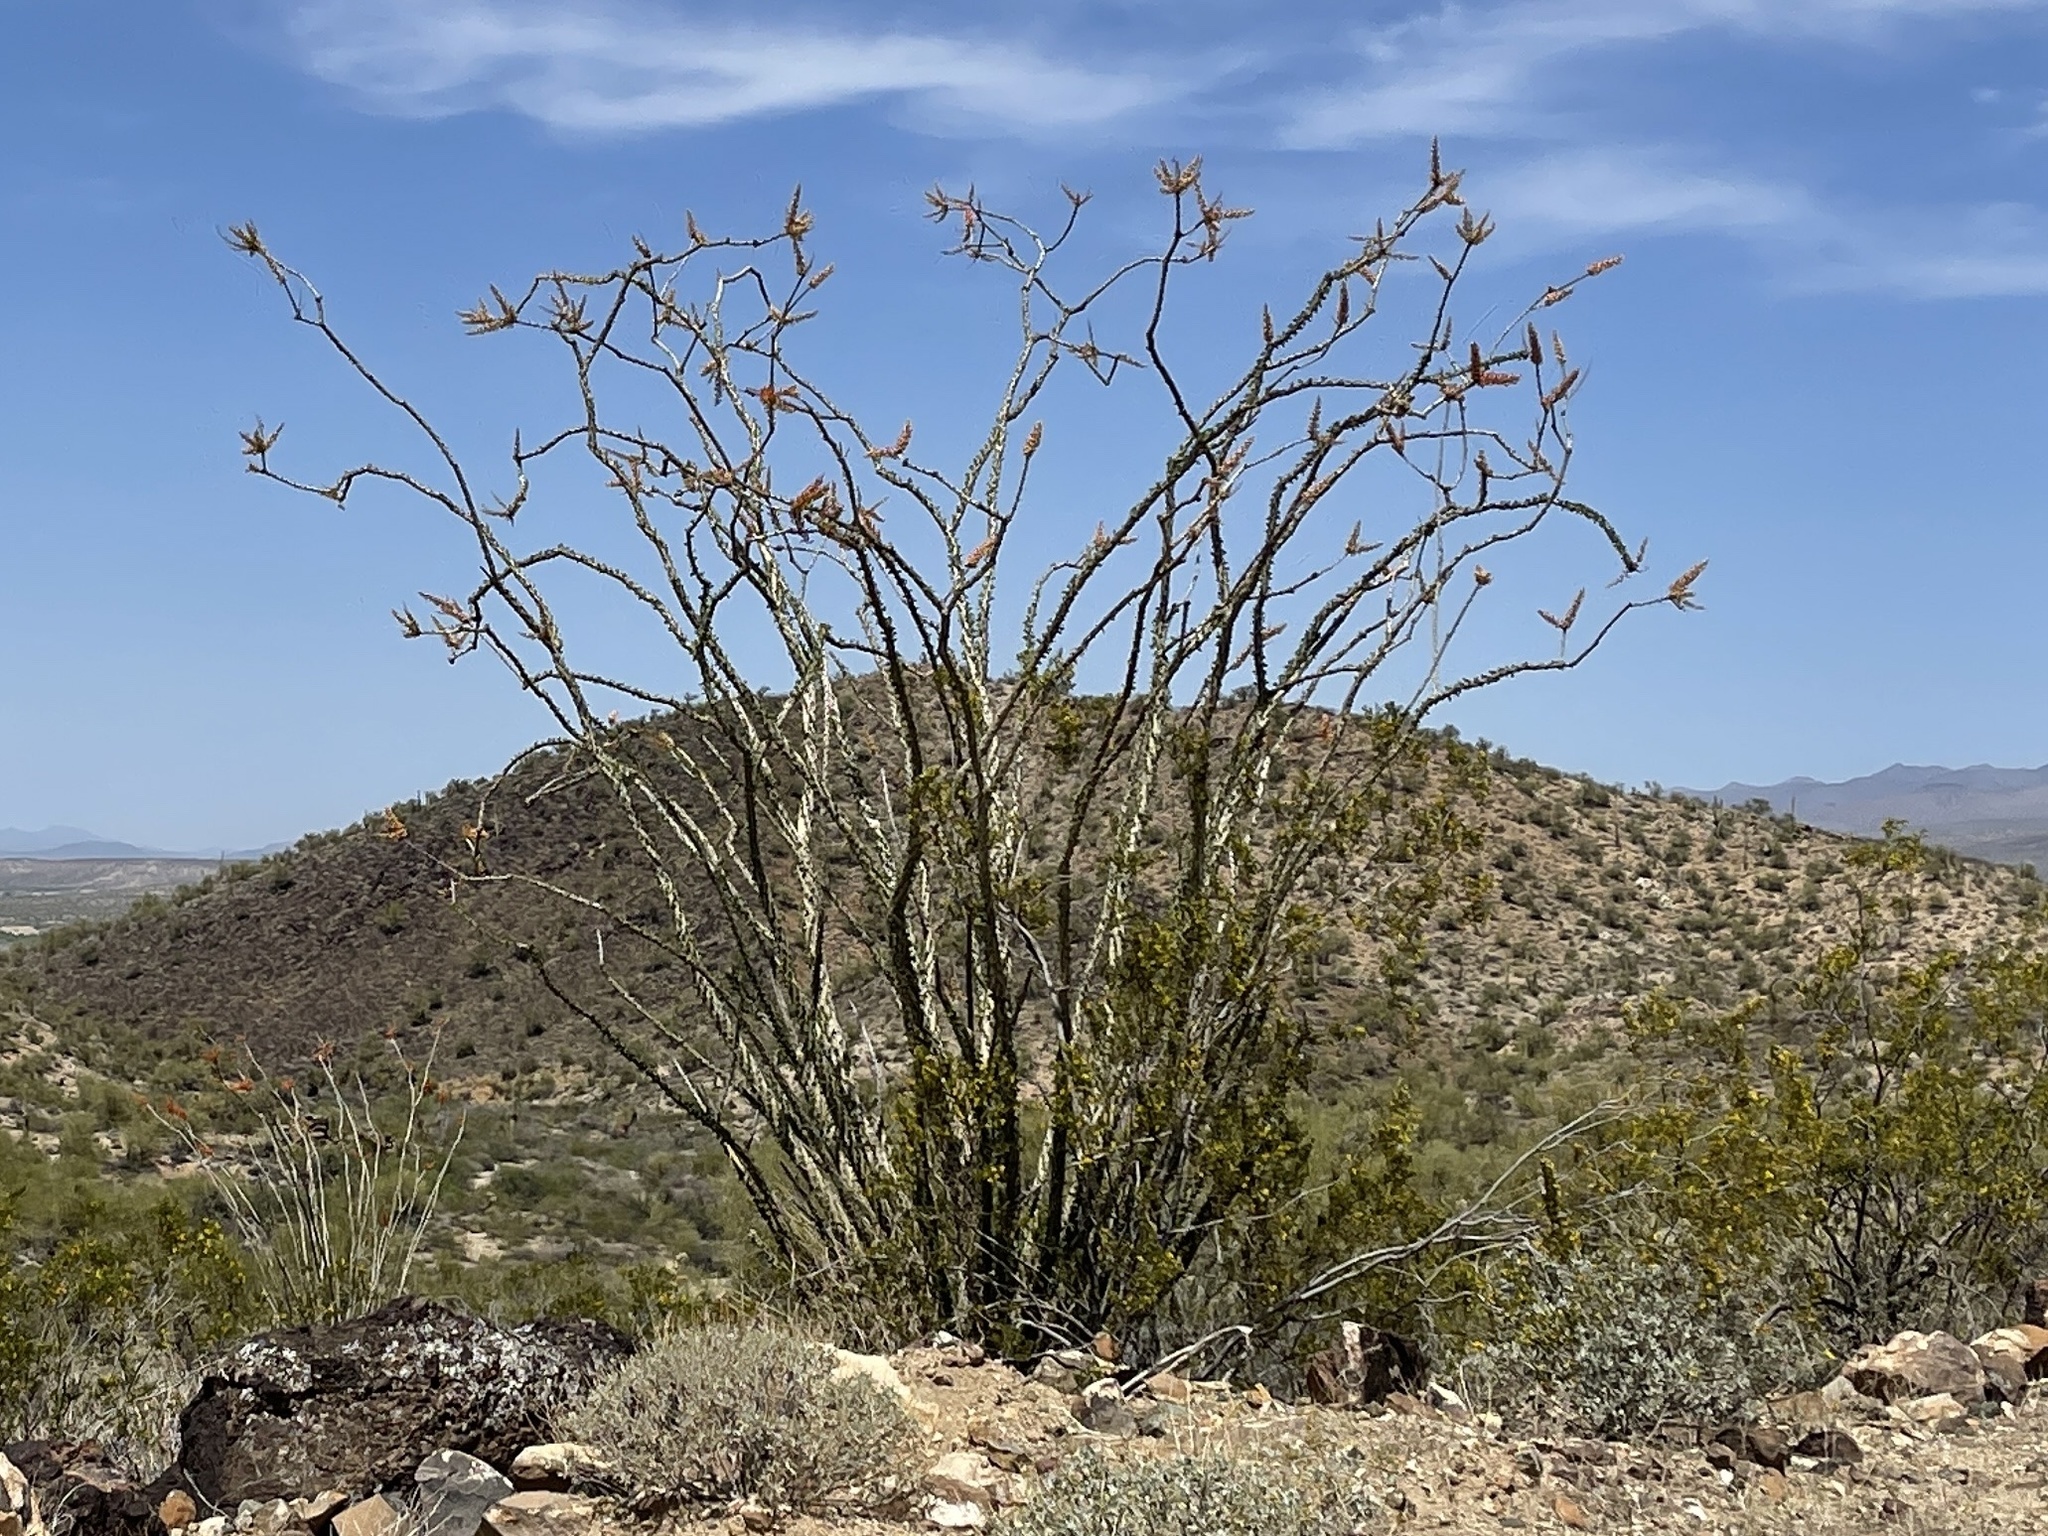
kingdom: Plantae
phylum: Tracheophyta
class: Magnoliopsida
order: Ericales
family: Fouquieriaceae
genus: Fouquieria
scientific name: Fouquieria splendens
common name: Vine-cactus
